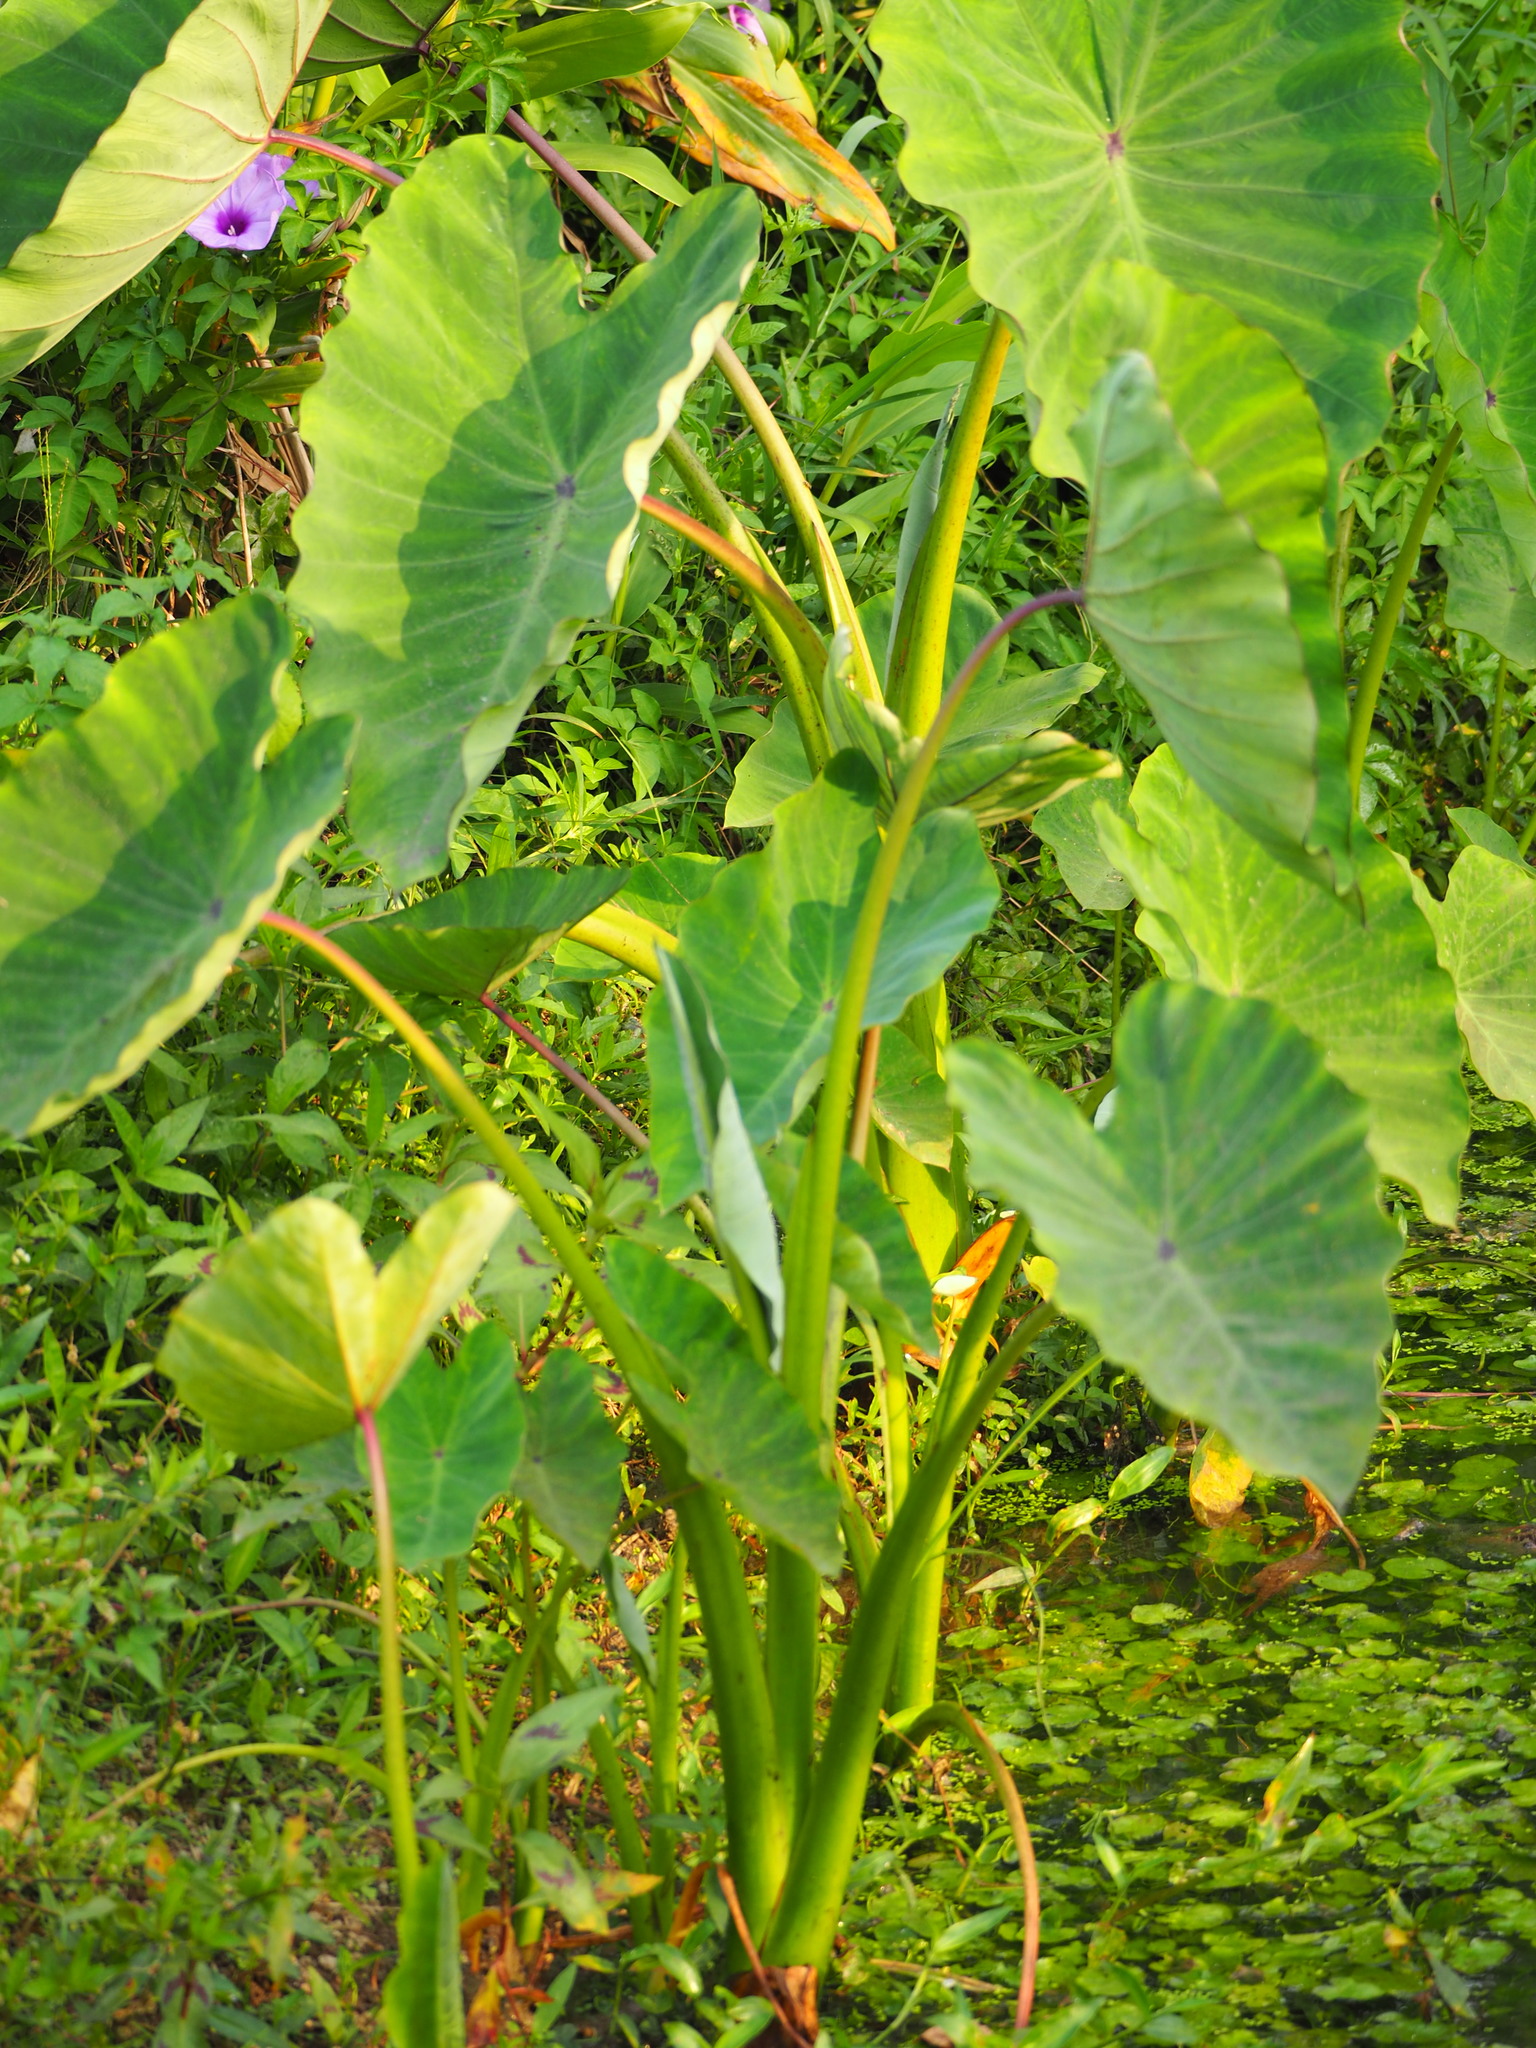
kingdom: Plantae
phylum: Tracheophyta
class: Liliopsida
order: Alismatales
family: Araceae
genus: Colocasia
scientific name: Colocasia esculenta
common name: Taro
